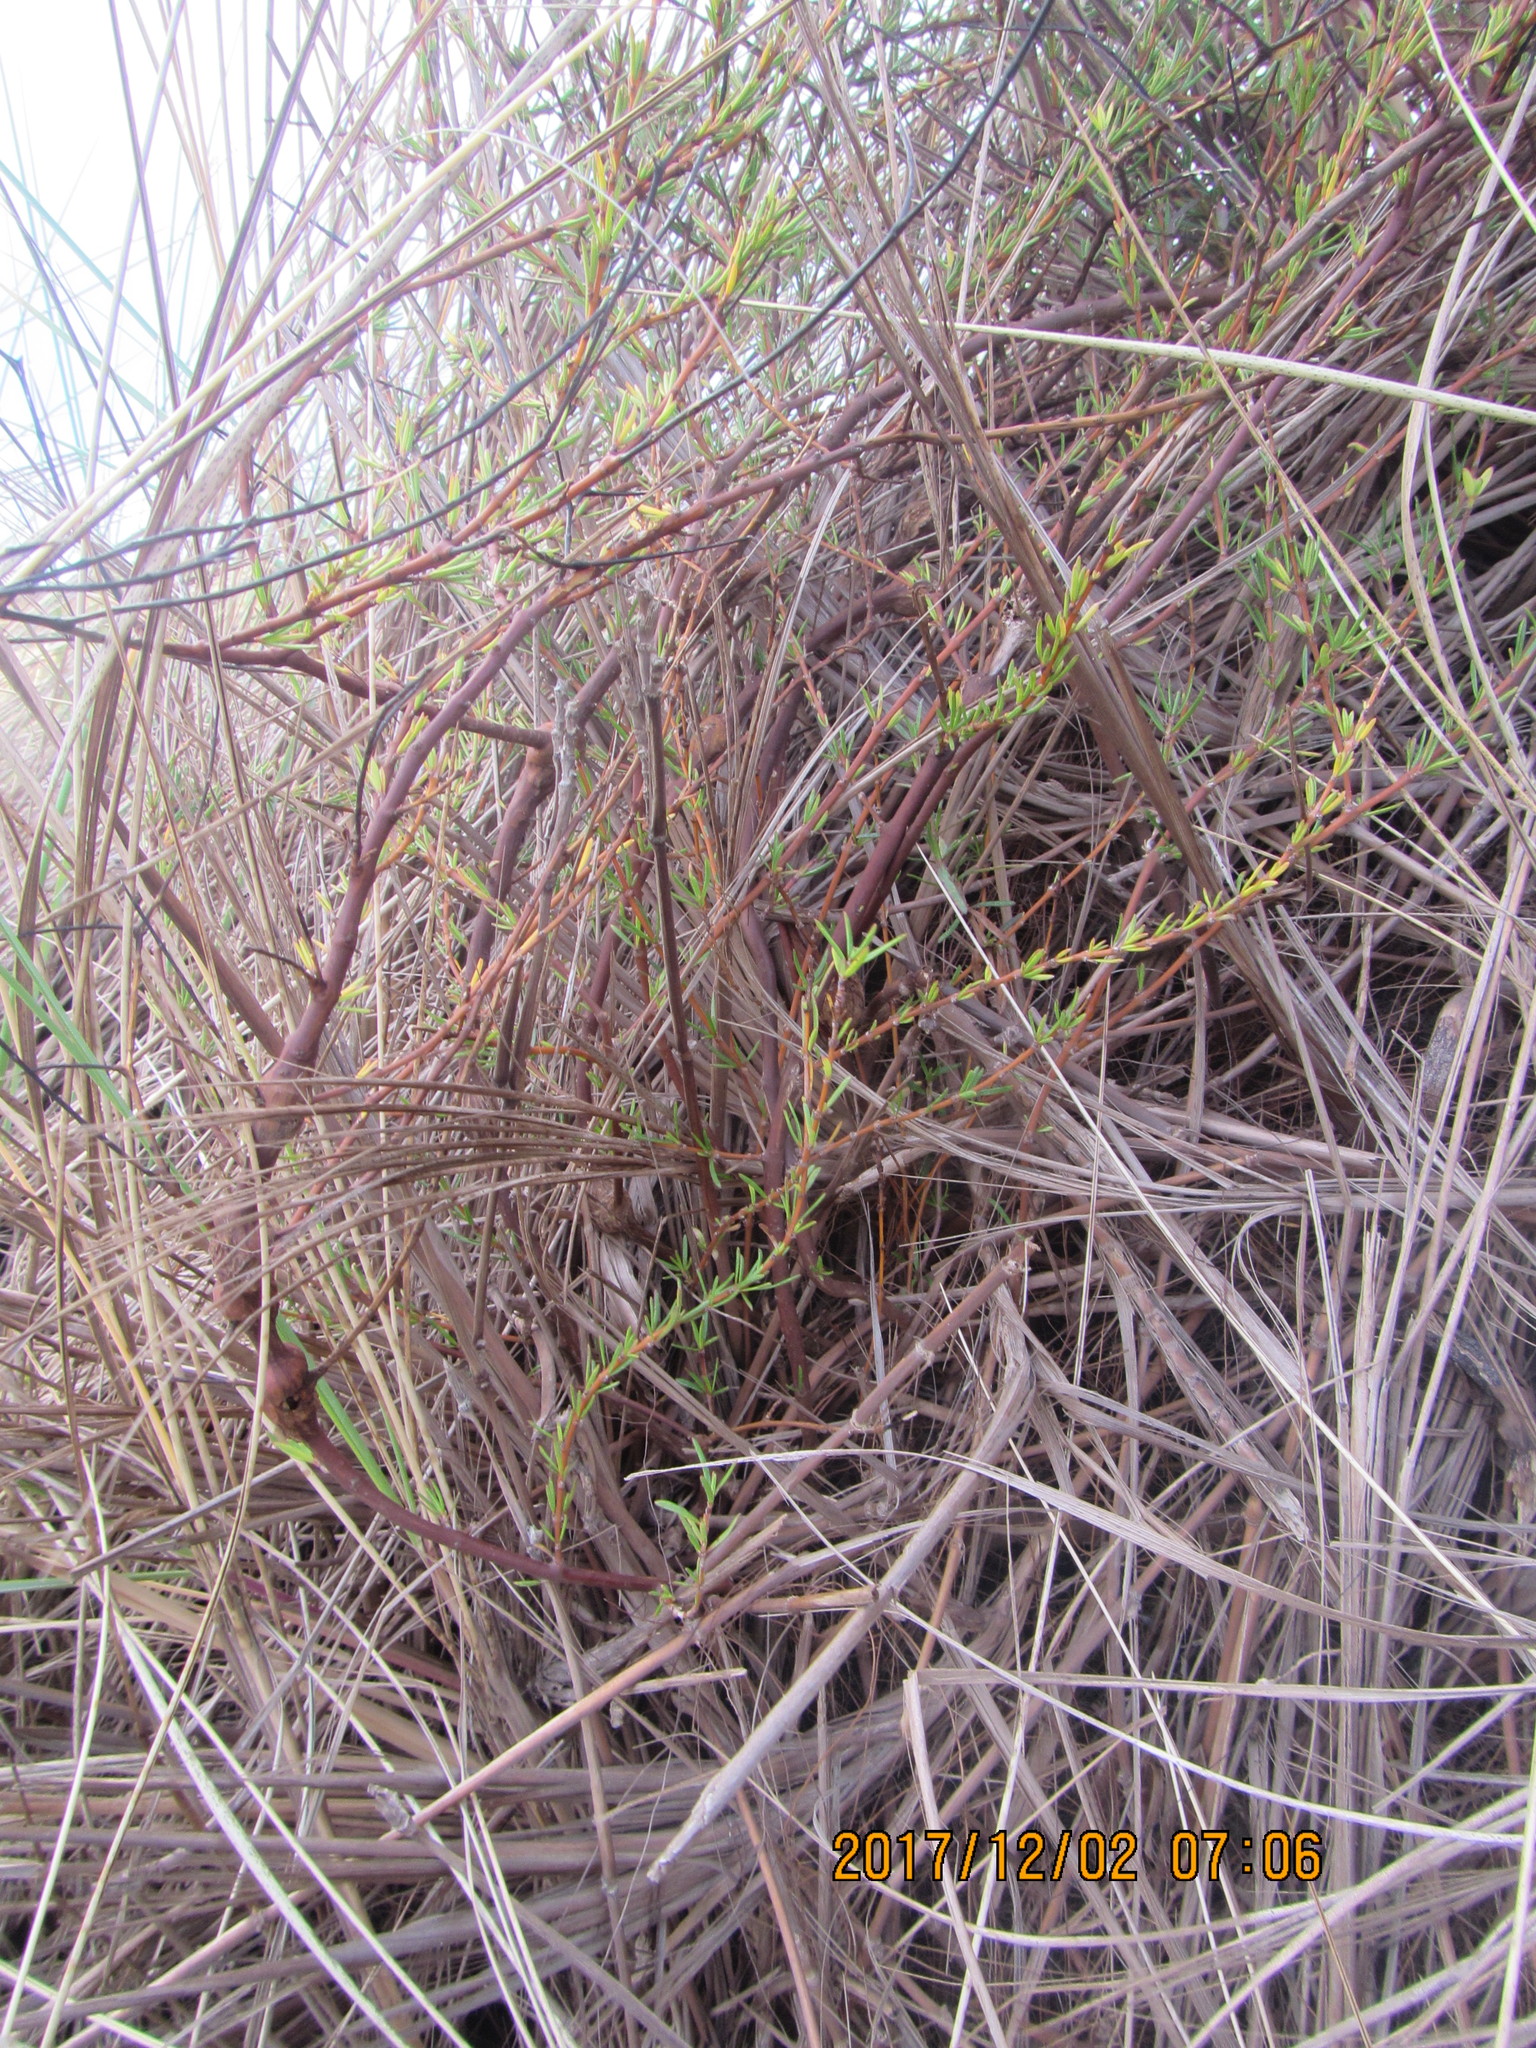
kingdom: Plantae
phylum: Tracheophyta
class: Magnoliopsida
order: Fabales
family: Fabaceae
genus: Lupinus
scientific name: Lupinus arboreus
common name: Yellow bush lupine
